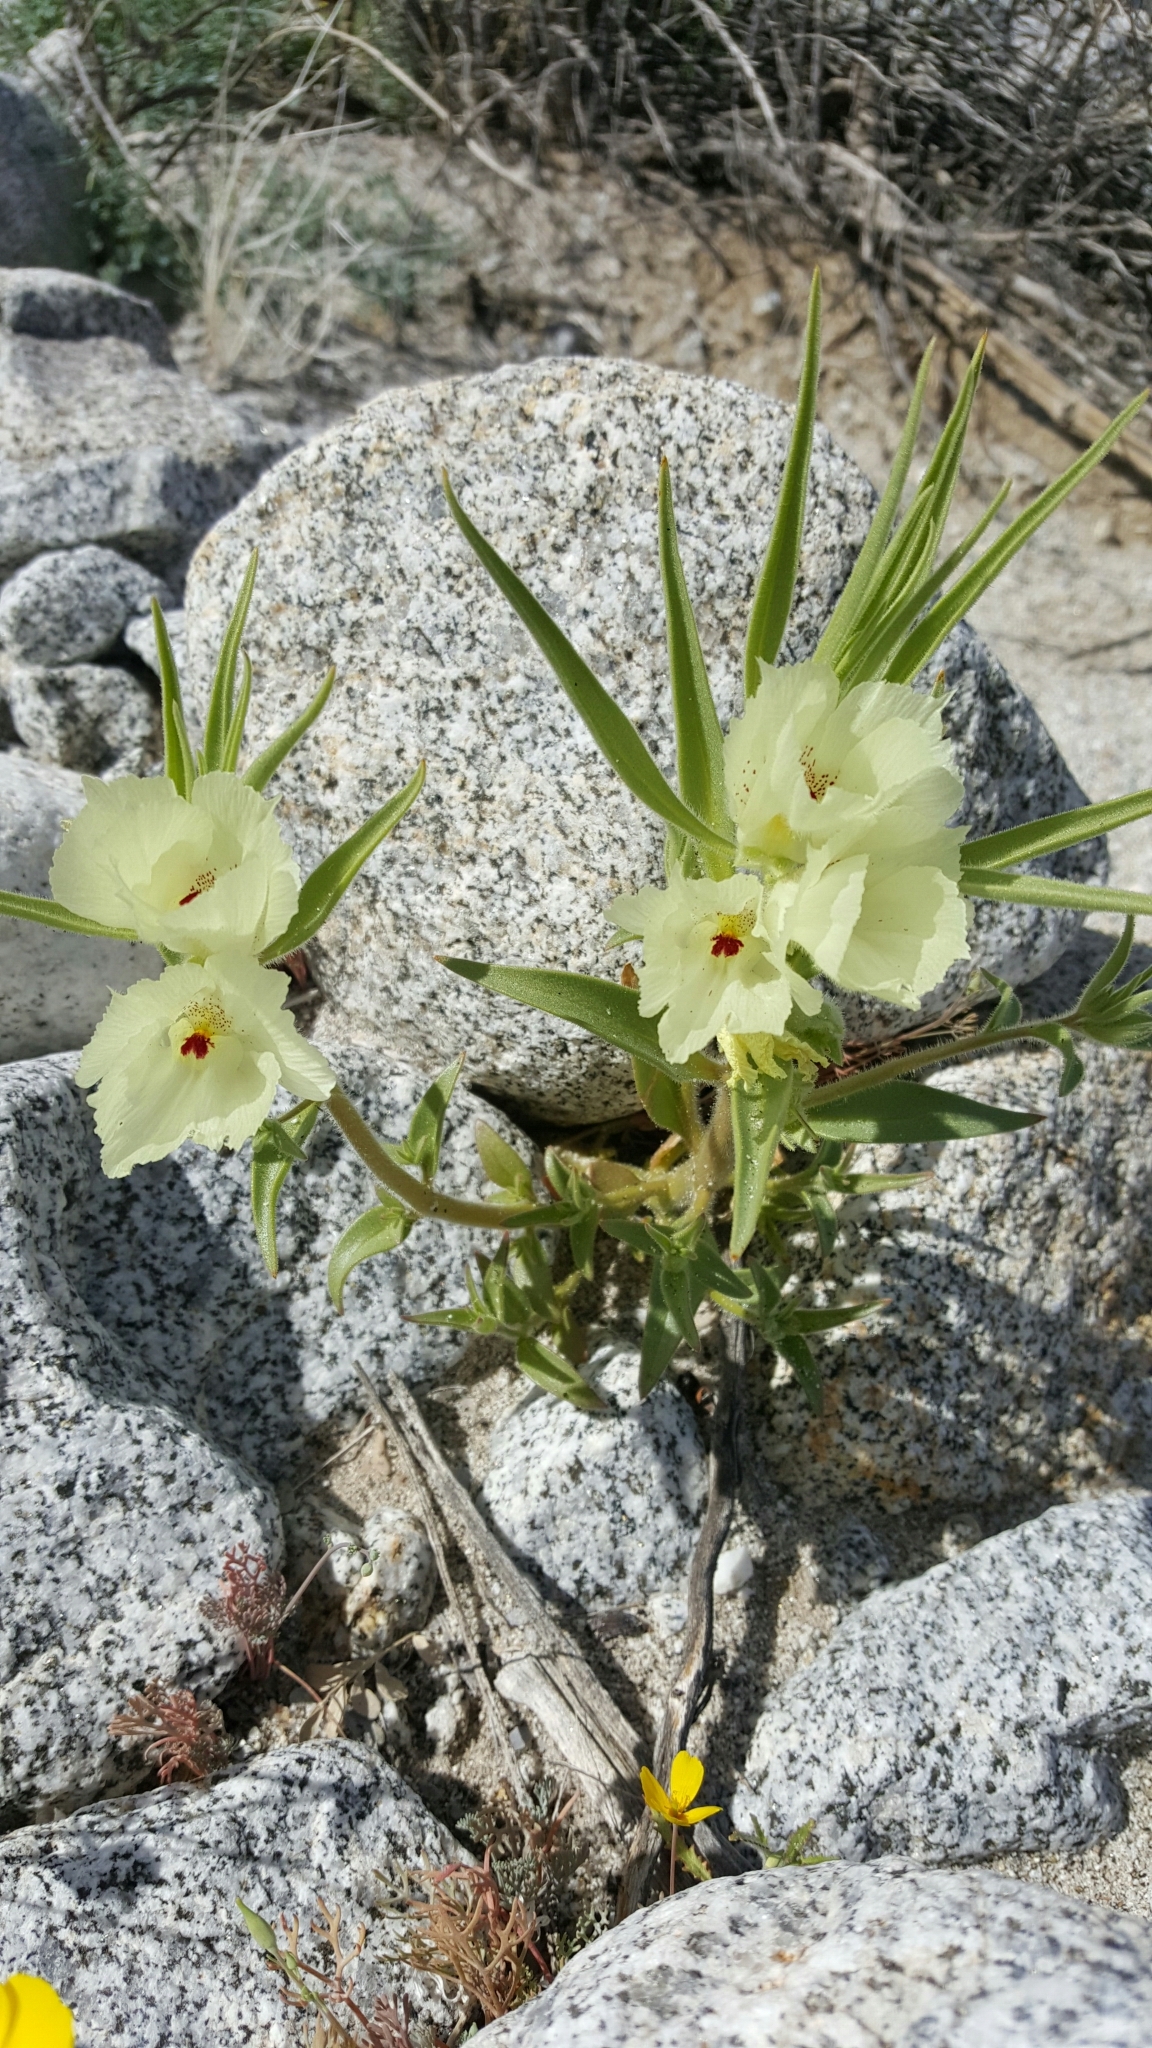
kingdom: Plantae
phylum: Tracheophyta
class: Magnoliopsida
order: Lamiales
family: Plantaginaceae
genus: Mohavea
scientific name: Mohavea confertiflora
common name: Ghost flower
